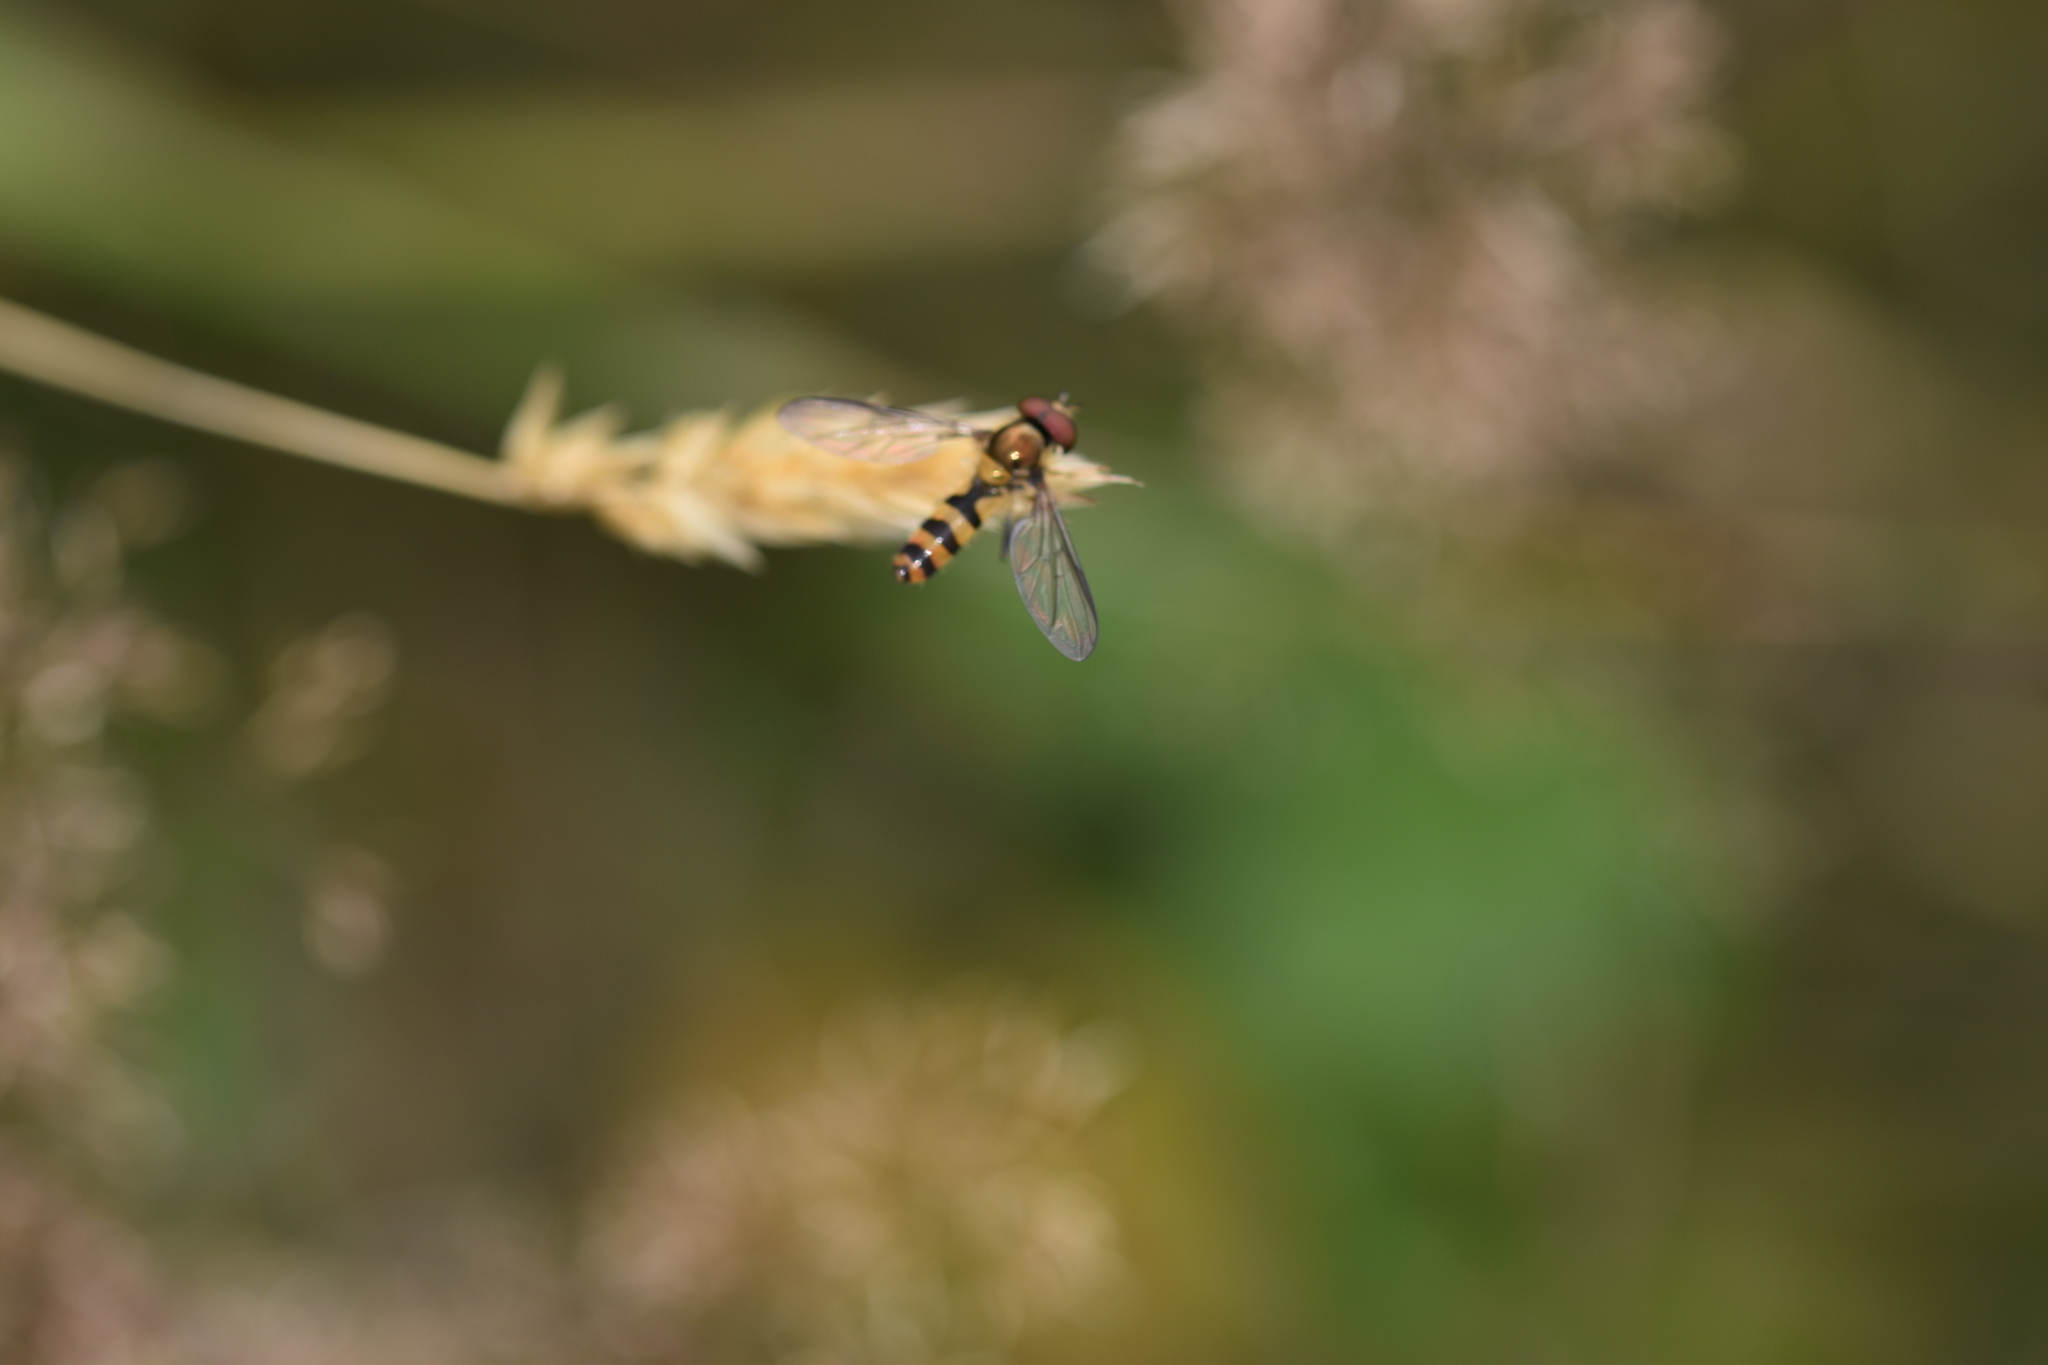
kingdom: Animalia
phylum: Arthropoda
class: Insecta
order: Diptera
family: Syrphidae
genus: Meliscaeva
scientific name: Meliscaeva cinctella
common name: American thintail fly
